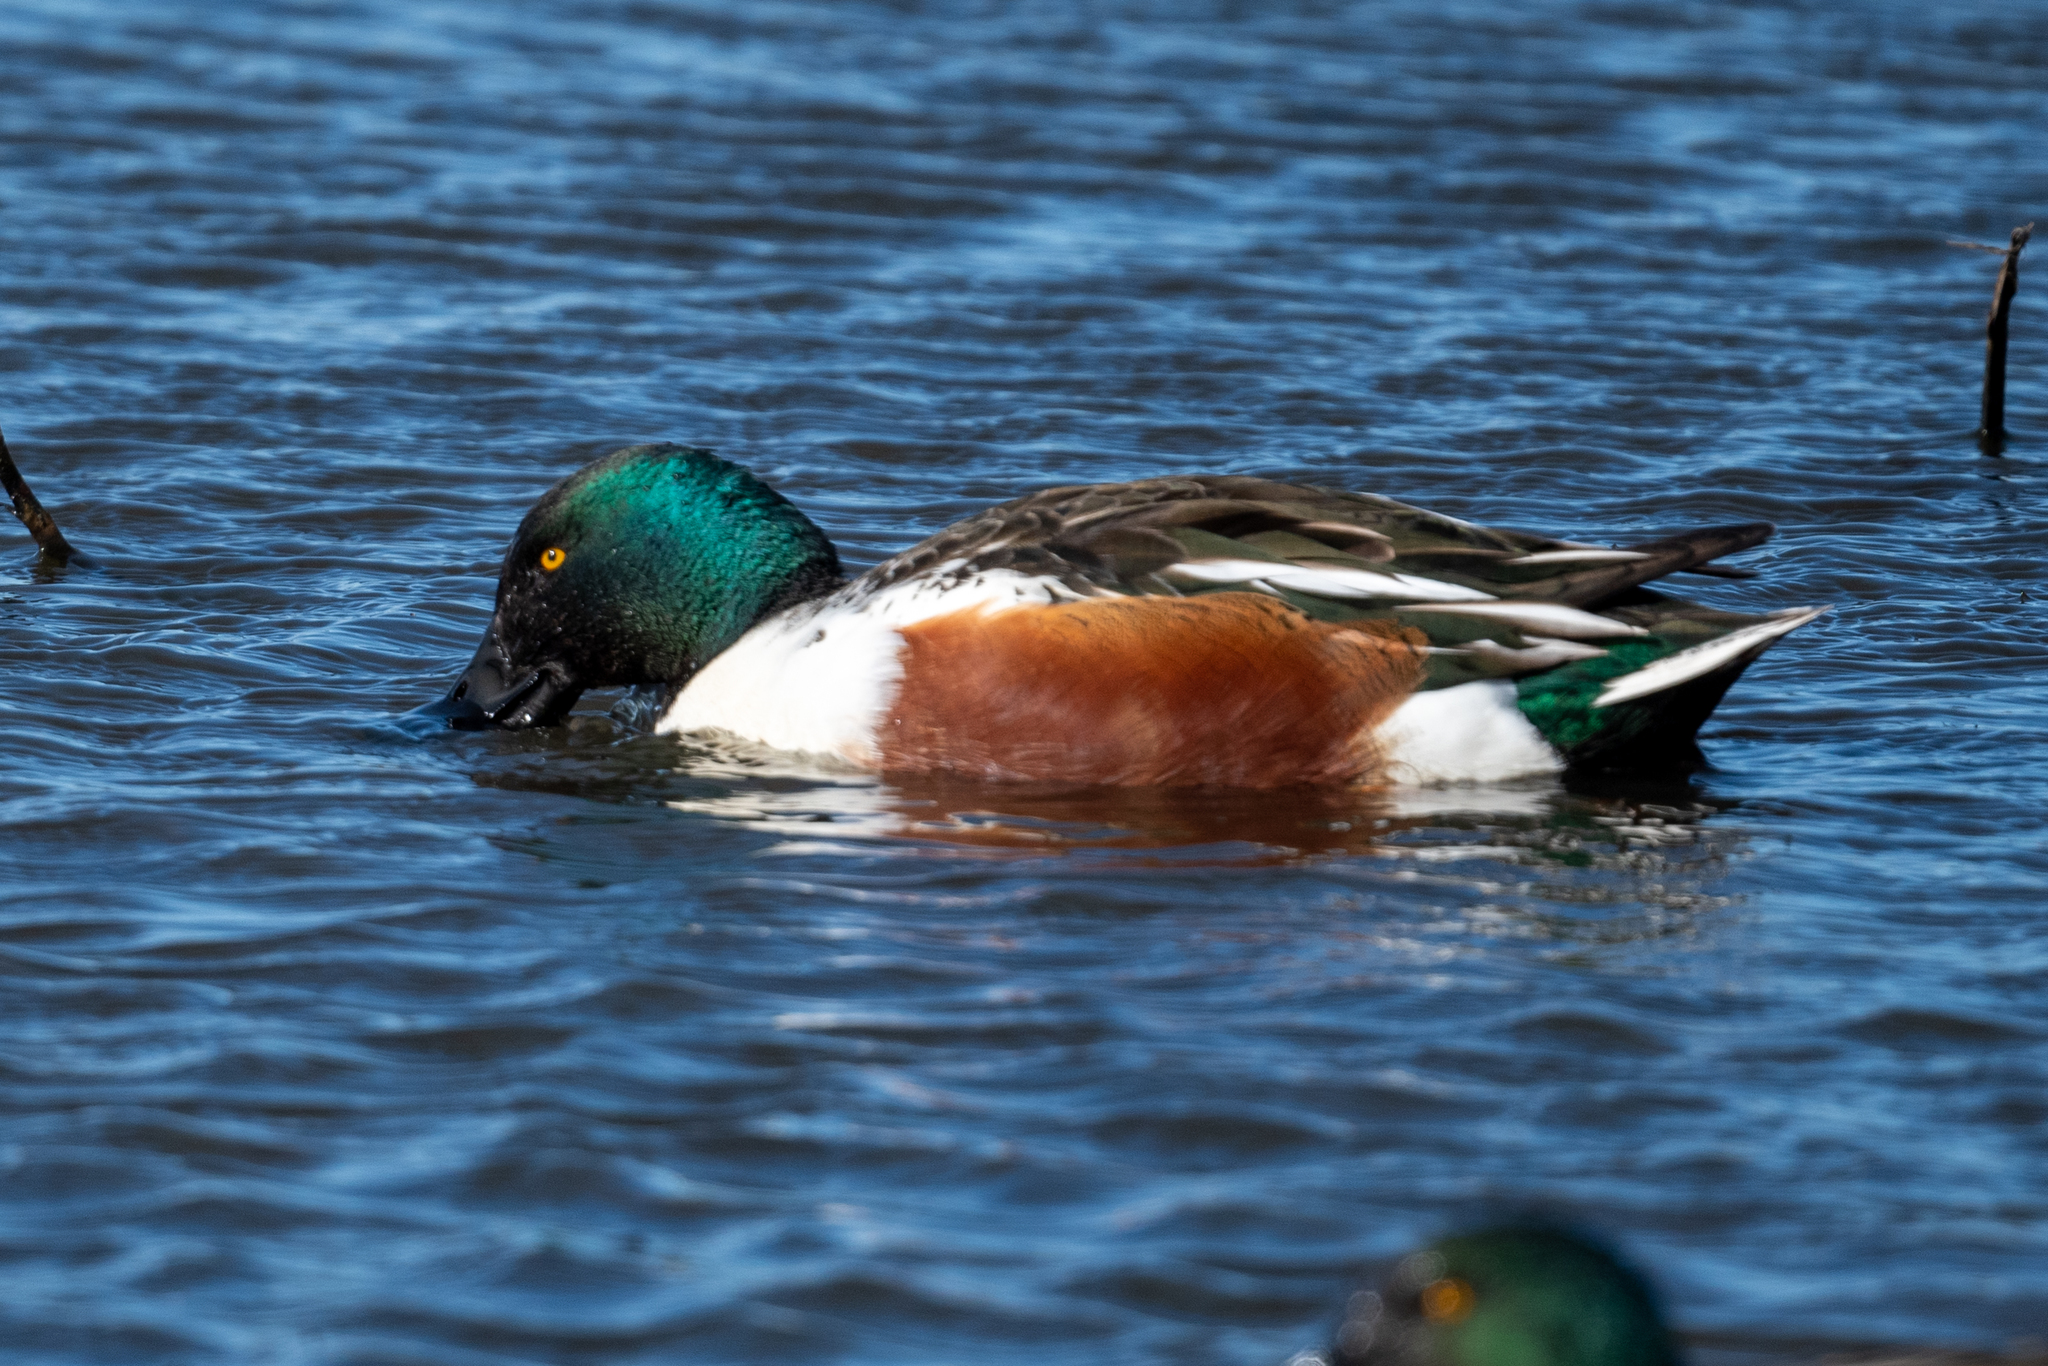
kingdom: Animalia
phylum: Chordata
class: Aves
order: Anseriformes
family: Anatidae
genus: Spatula
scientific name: Spatula clypeata
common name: Northern shoveler
